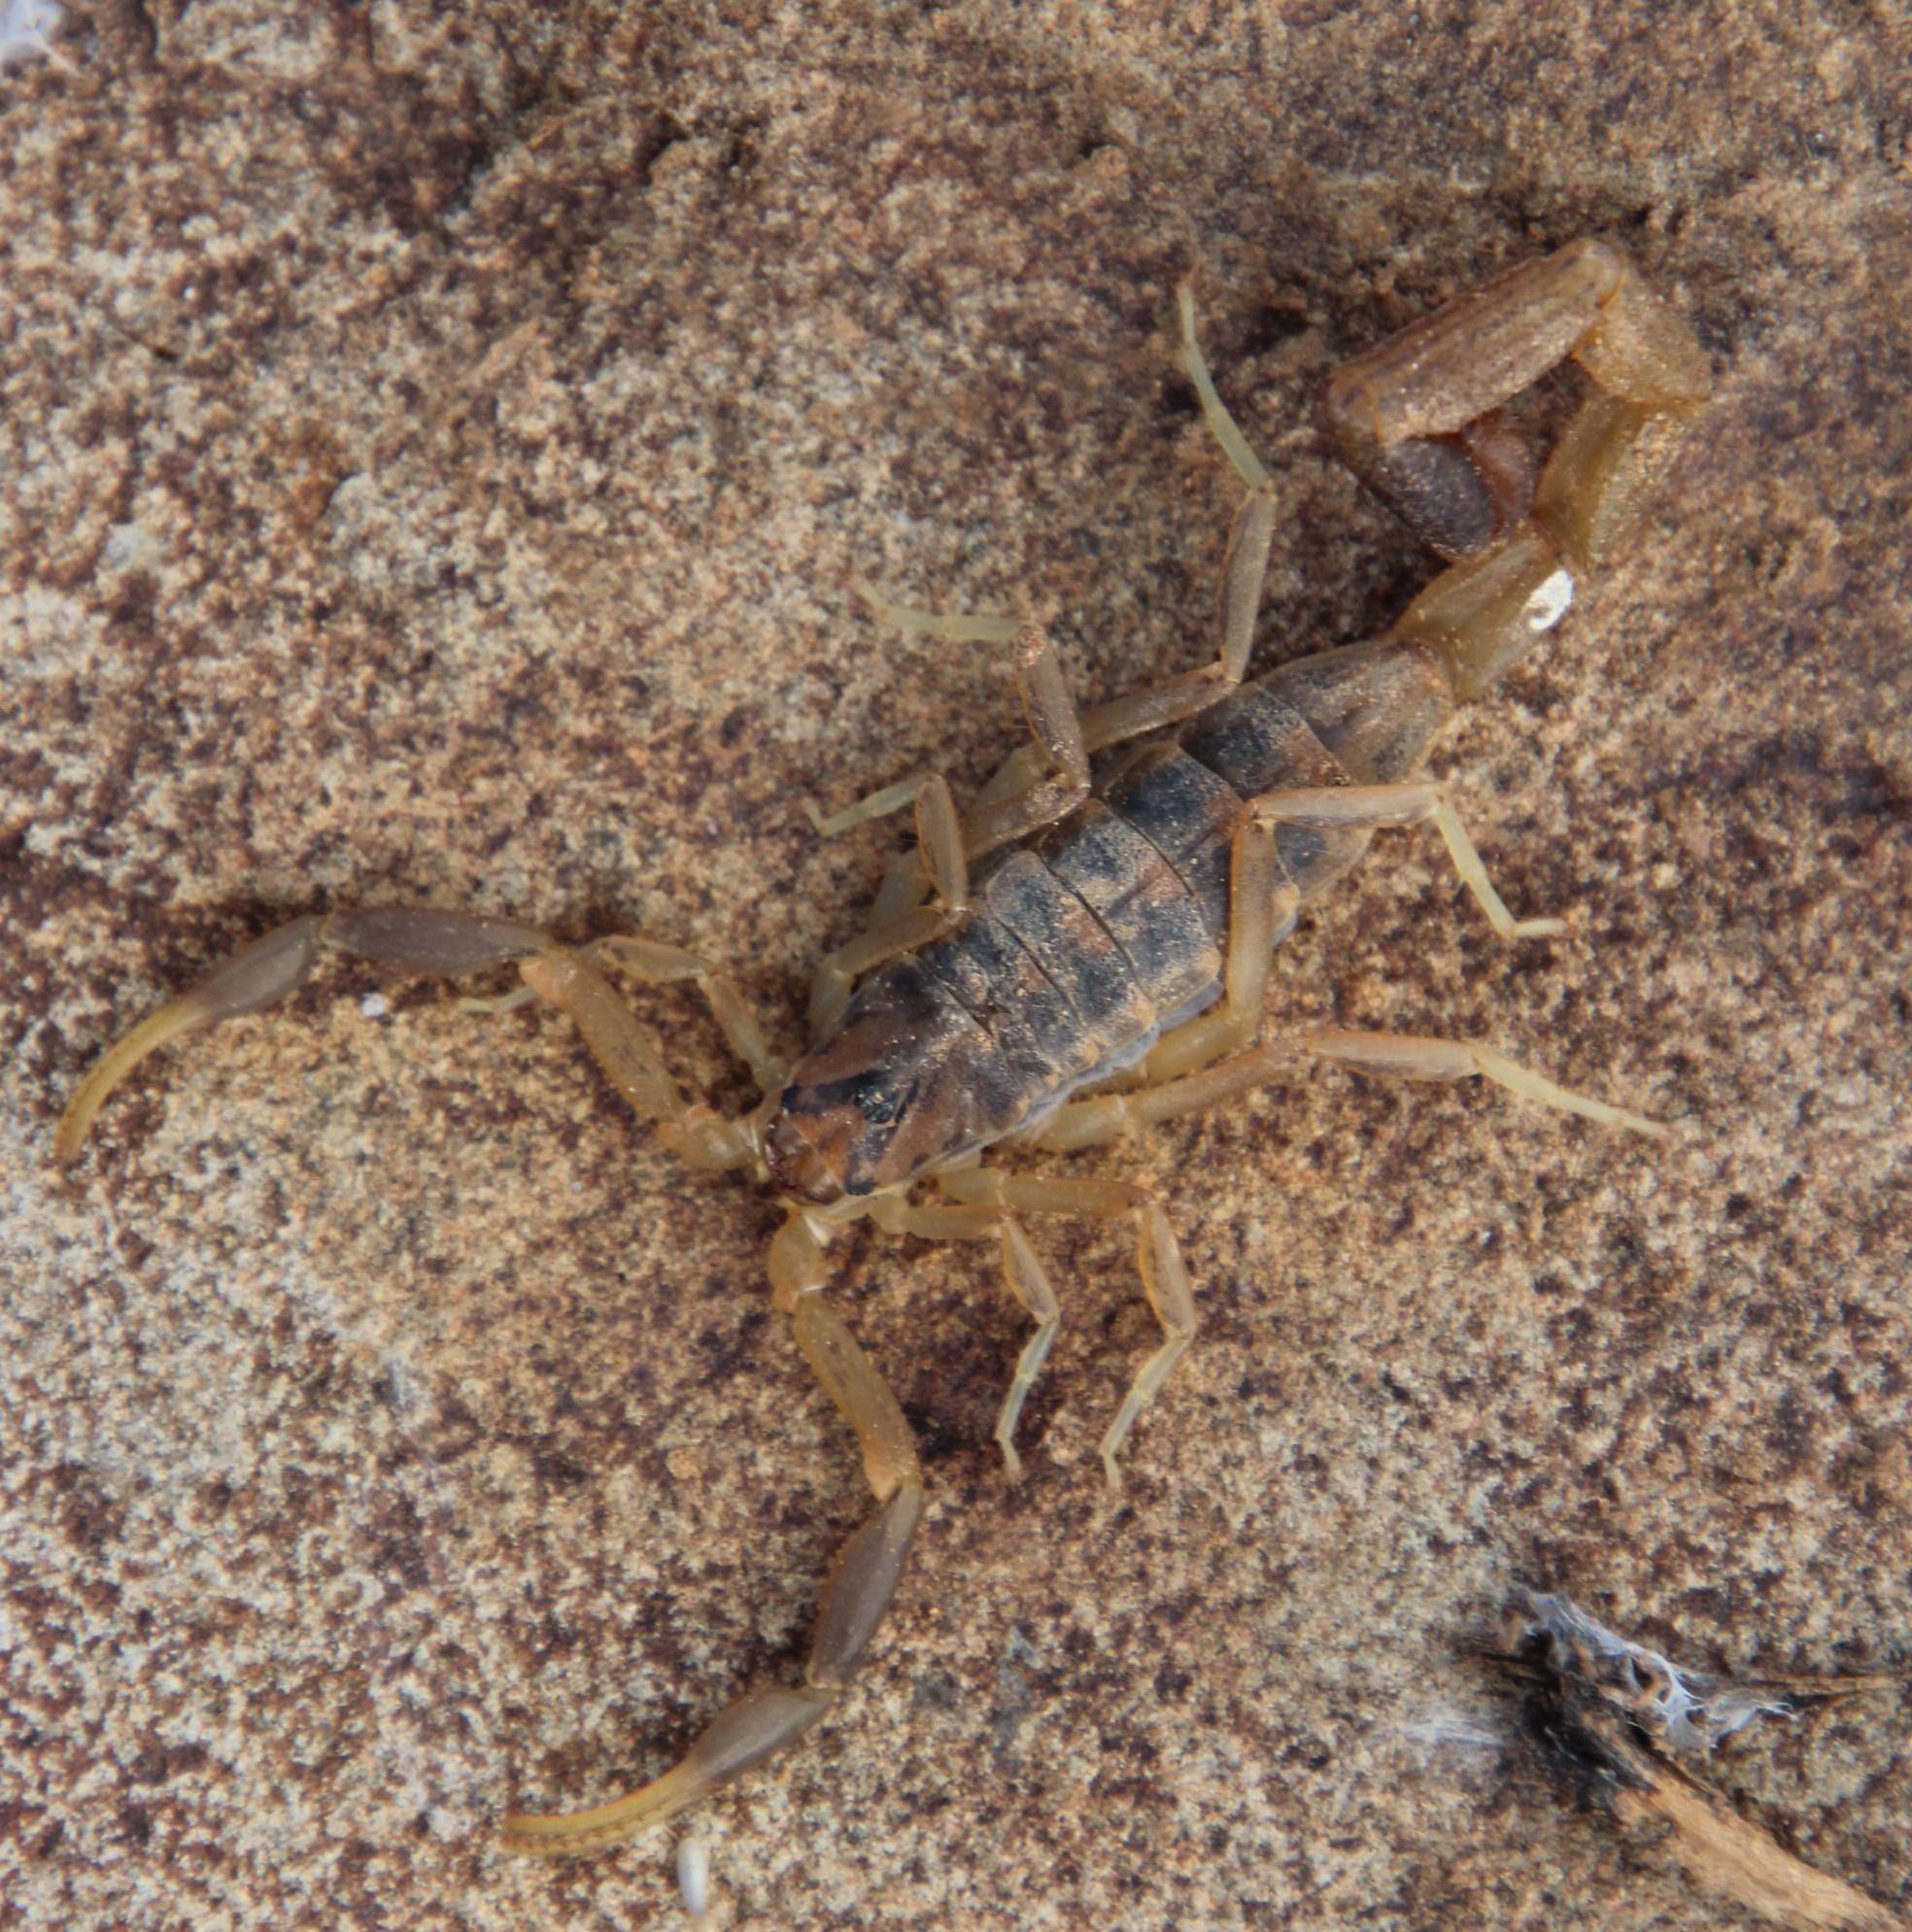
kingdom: Animalia
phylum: Arthropoda
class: Arachnida
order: Scorpiones
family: Buthidae
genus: Uroplectes
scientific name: Uroplectes triangulifer
